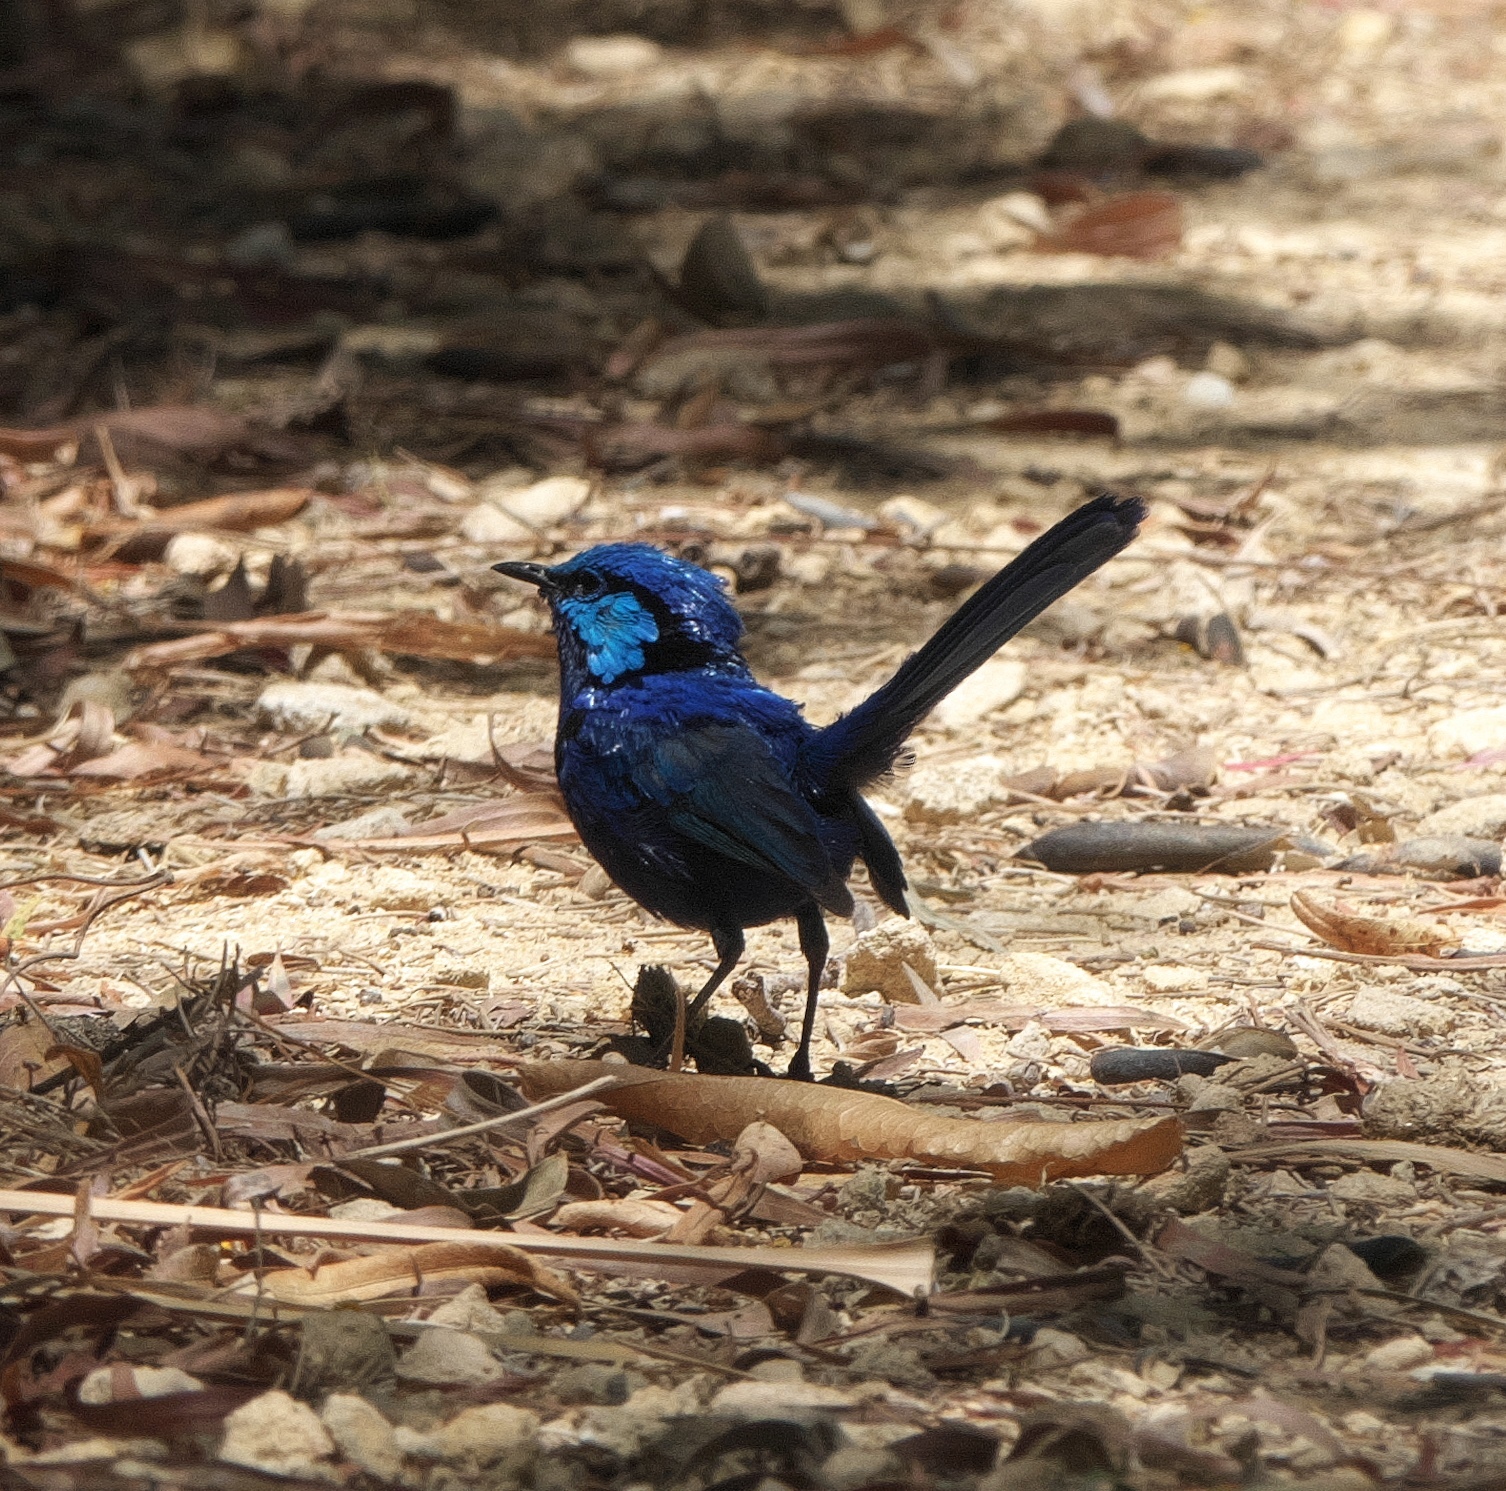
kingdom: Animalia
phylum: Chordata
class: Aves
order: Passeriformes
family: Maluridae
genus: Malurus
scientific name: Malurus splendens
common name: Splendid fairywren
